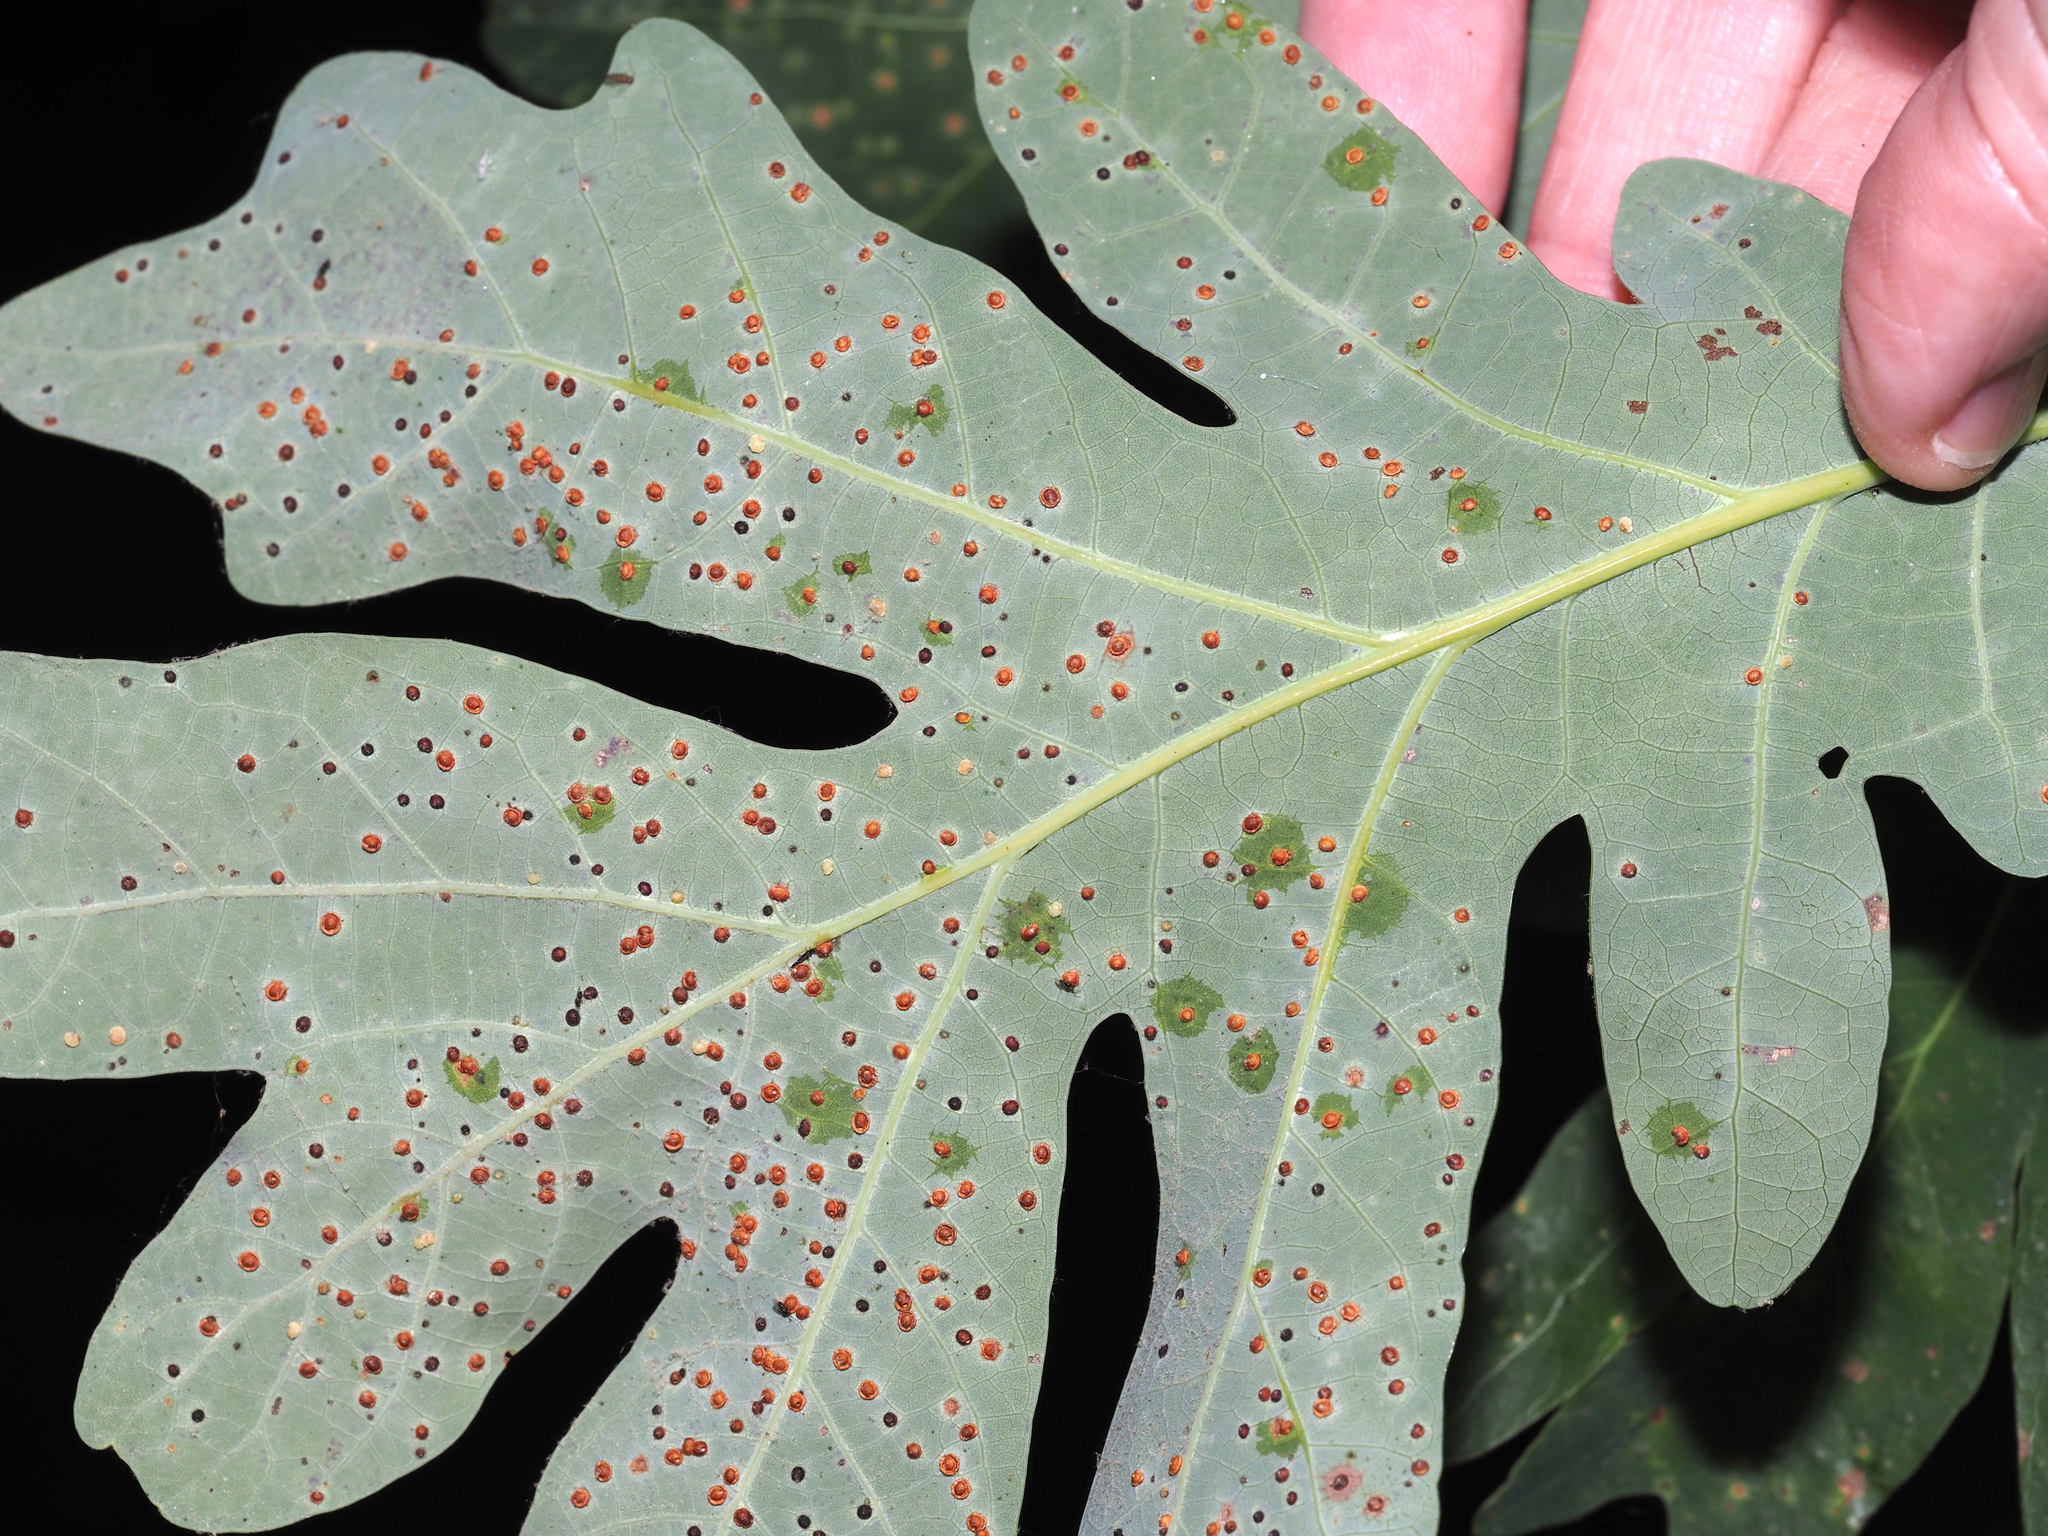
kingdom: Animalia
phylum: Arthropoda
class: Insecta
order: Hymenoptera
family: Cynipidae
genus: Neuroterus
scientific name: Neuroterus
